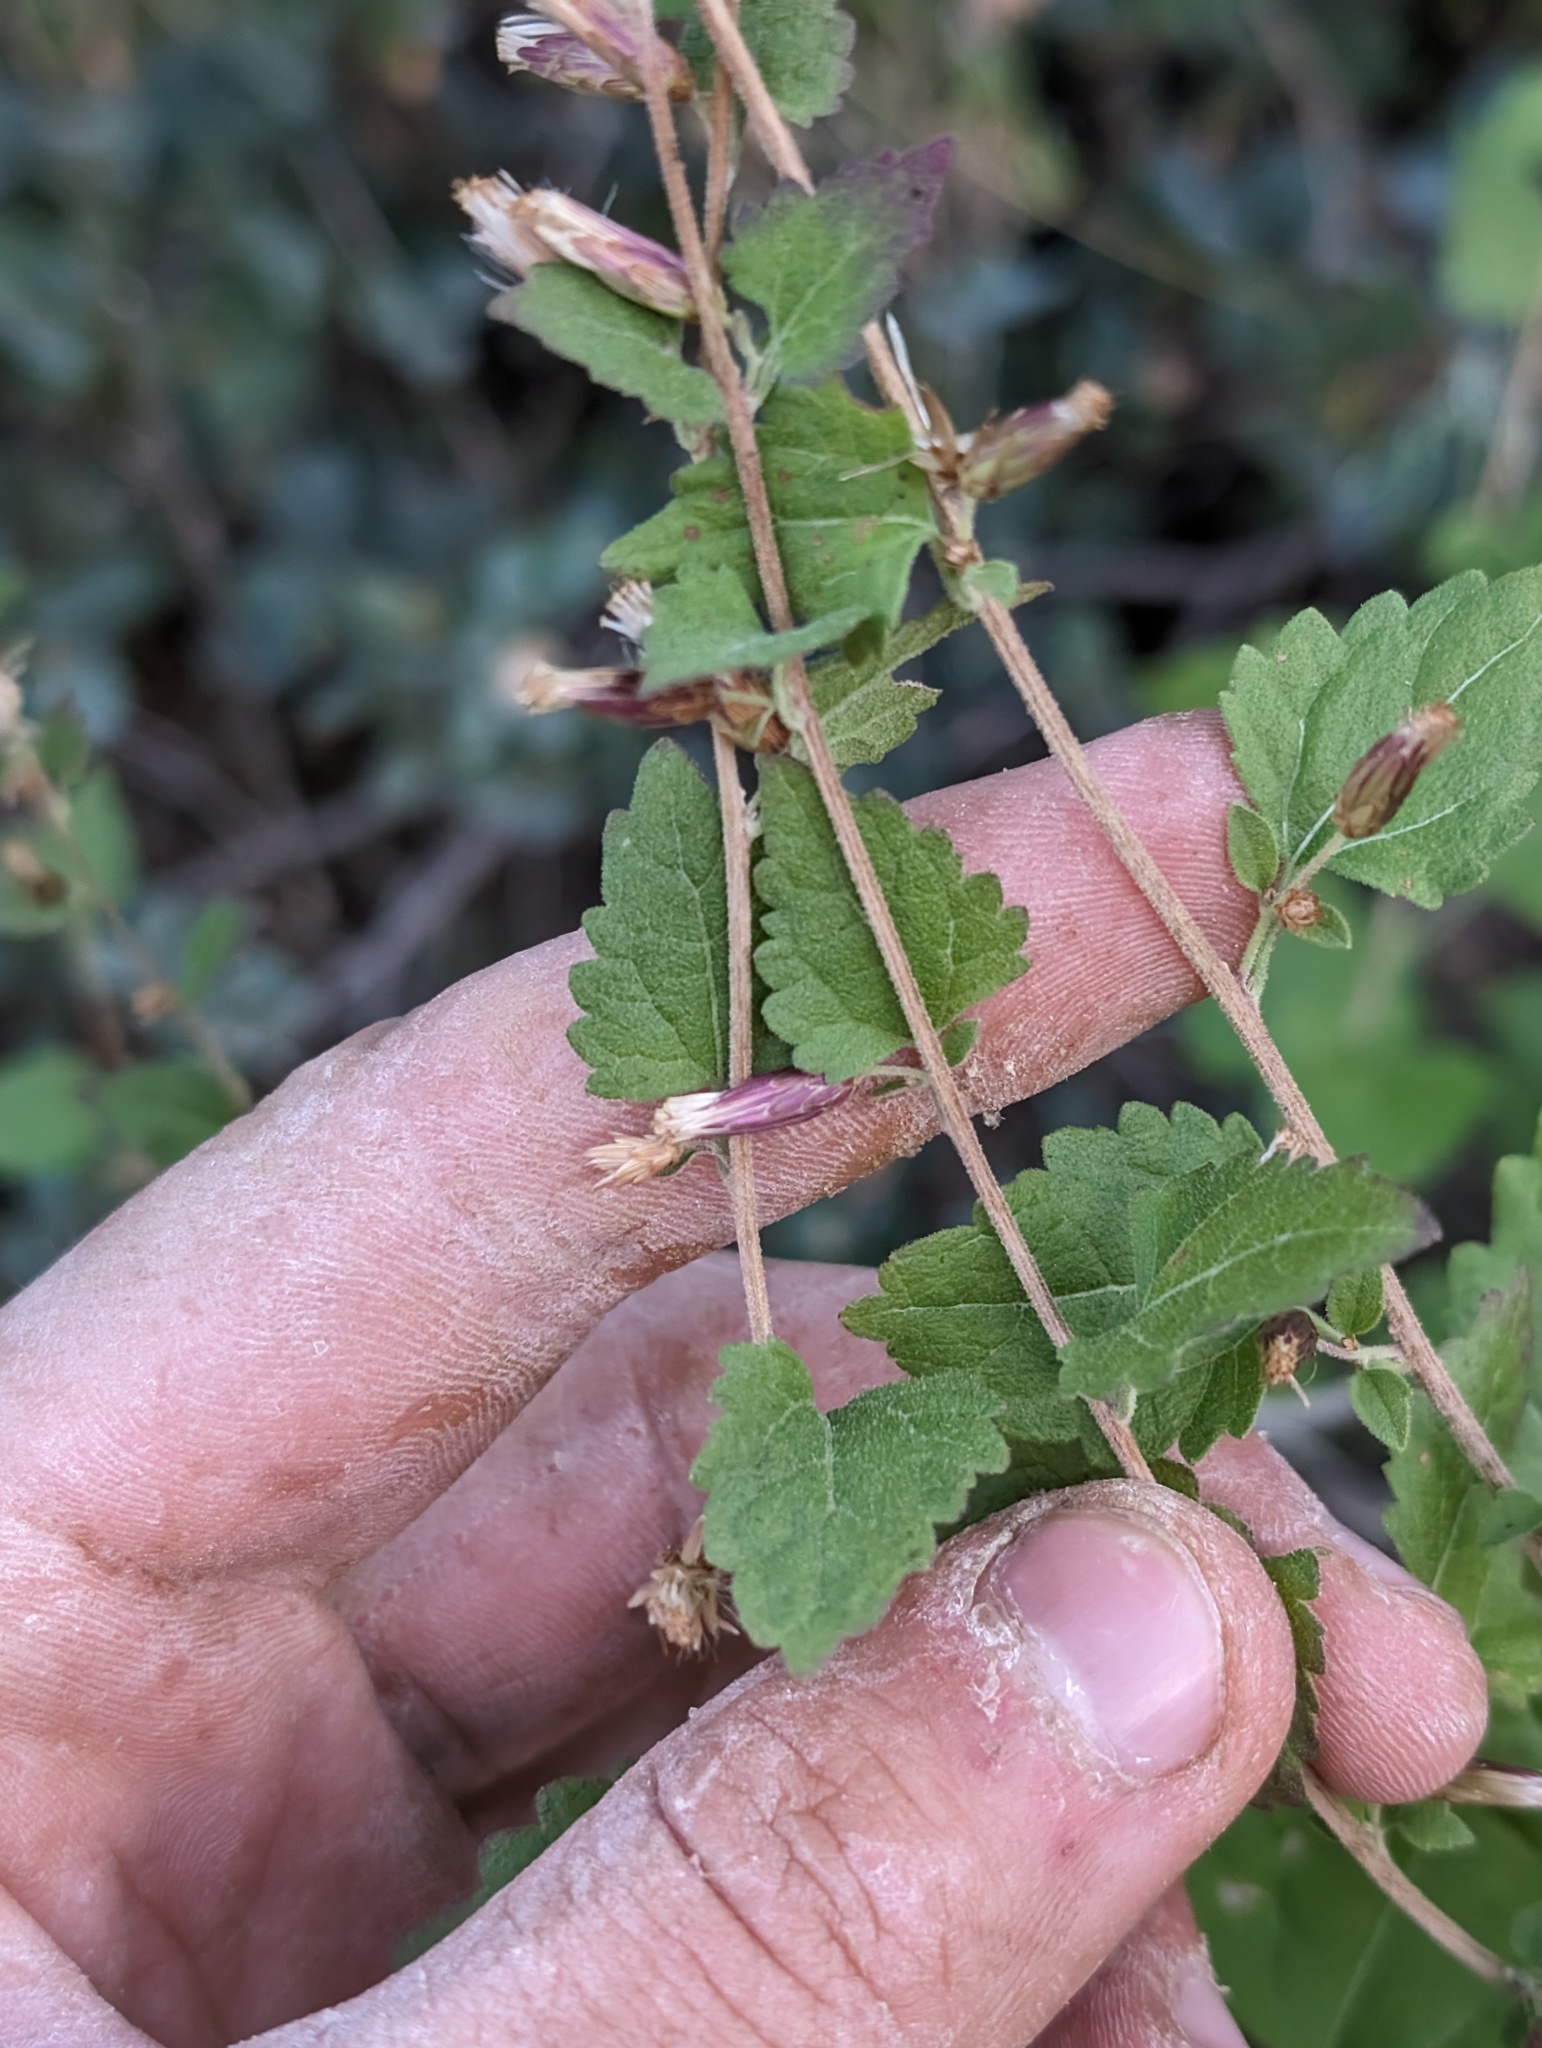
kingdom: Plantae
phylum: Tracheophyta
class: Magnoliopsida
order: Asterales
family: Asteraceae
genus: Brickellia
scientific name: Brickellia californica
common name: California brickellbush
